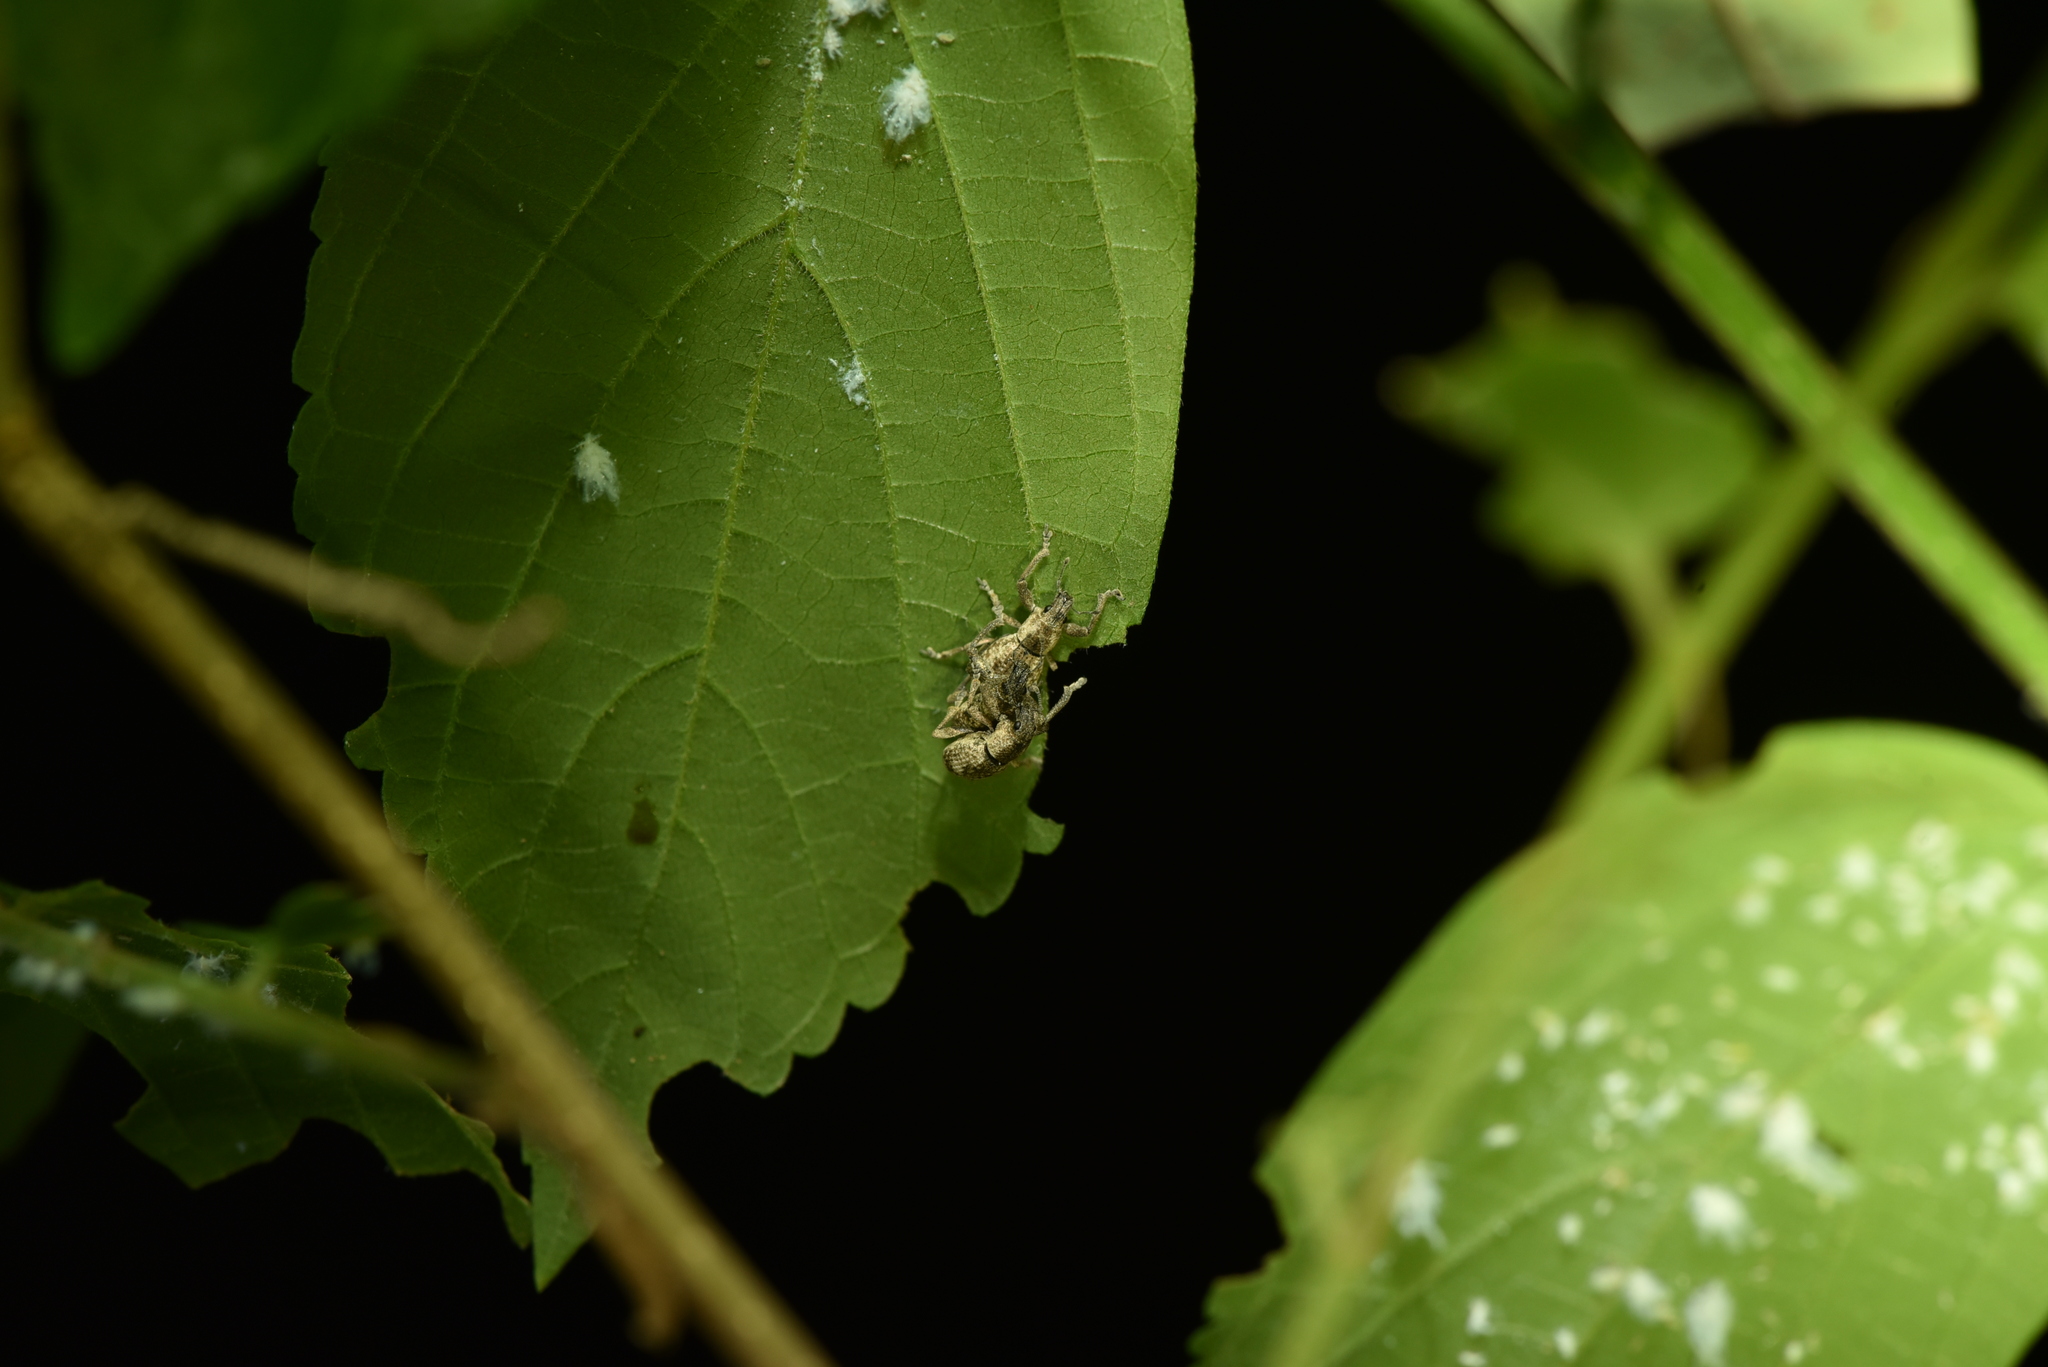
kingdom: Animalia
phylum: Arthropoda
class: Insecta
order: Coleoptera
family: Curculionidae
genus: Sympiezomias
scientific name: Sympiezomias cribricollis
